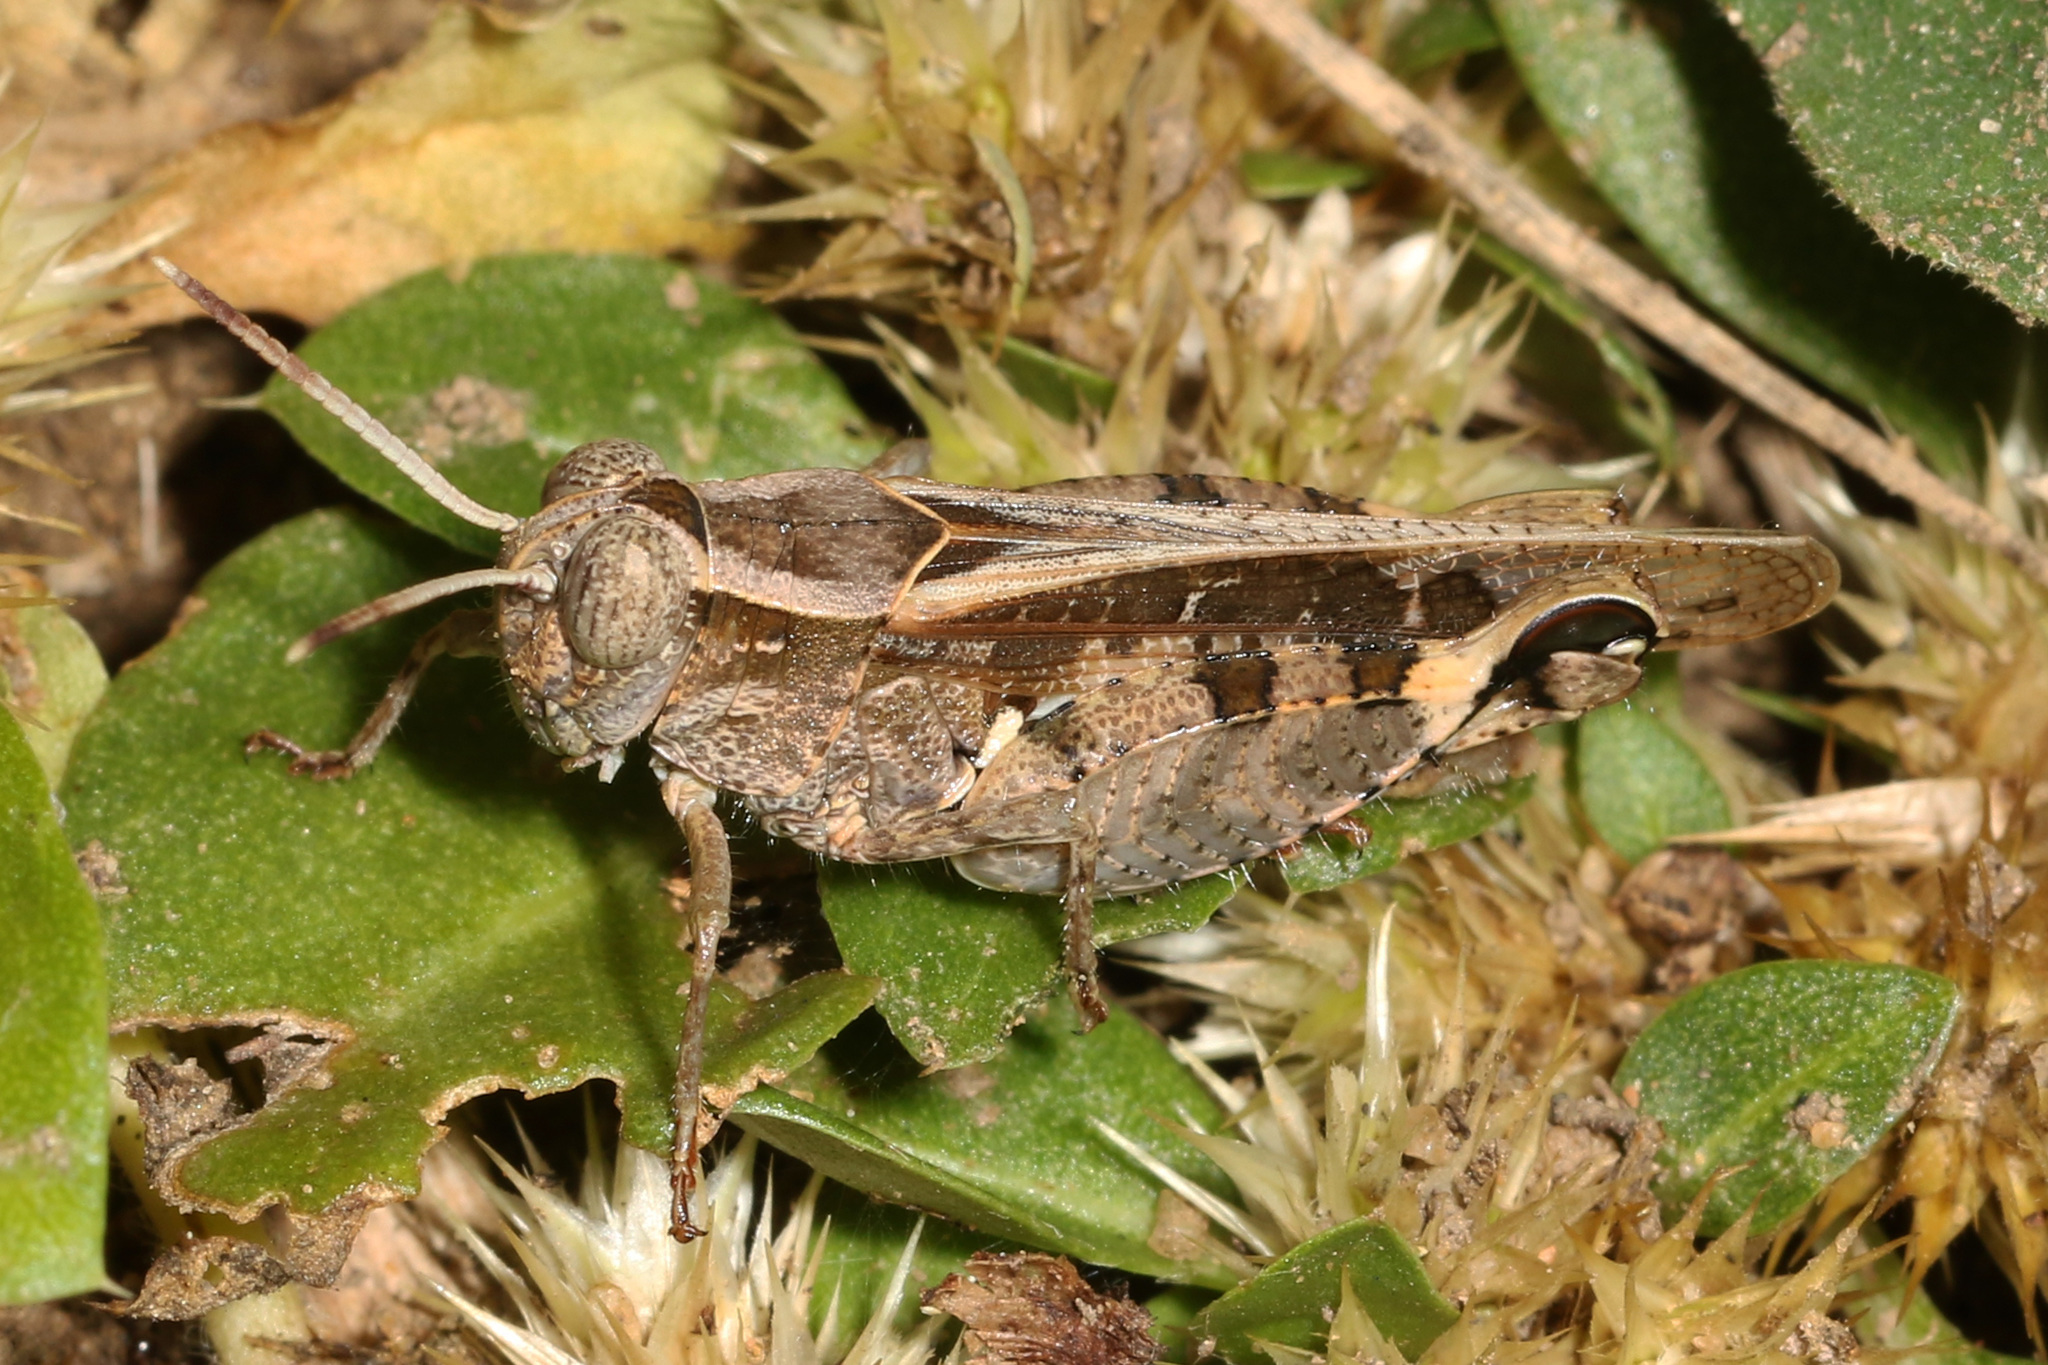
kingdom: Animalia
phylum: Arthropoda
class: Insecta
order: Orthoptera
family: Acrididae
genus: Acorypha
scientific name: Acorypha pallidicornis
